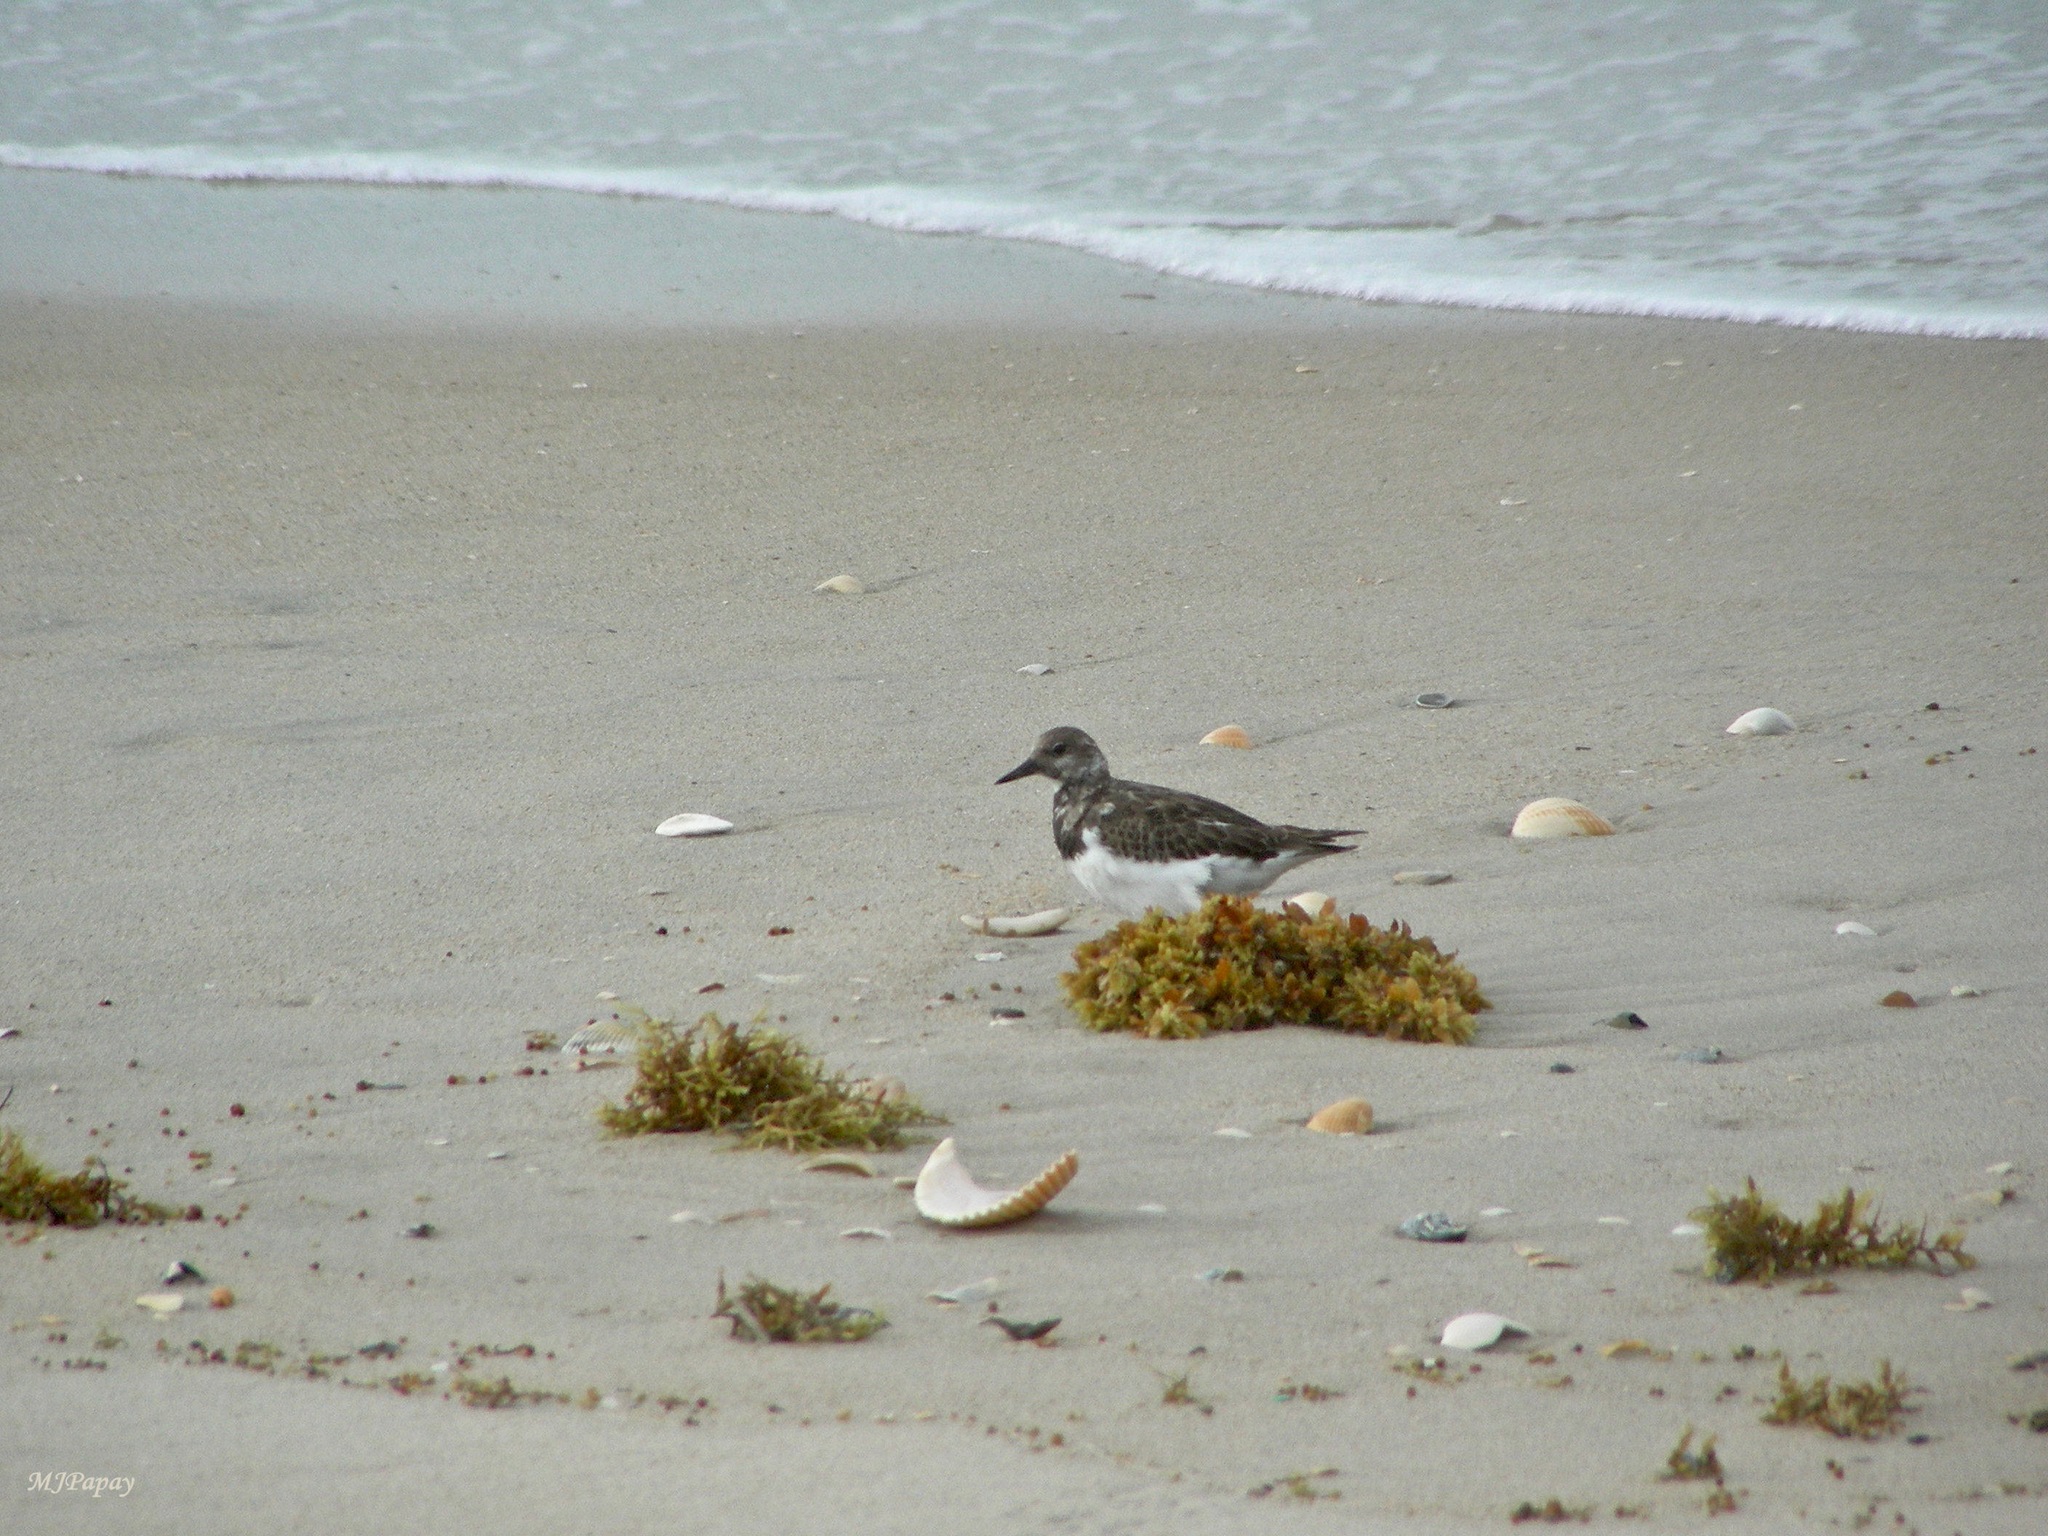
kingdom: Animalia
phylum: Chordata
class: Aves
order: Charadriiformes
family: Scolopacidae
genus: Arenaria
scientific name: Arenaria interpres
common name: Ruddy turnstone
